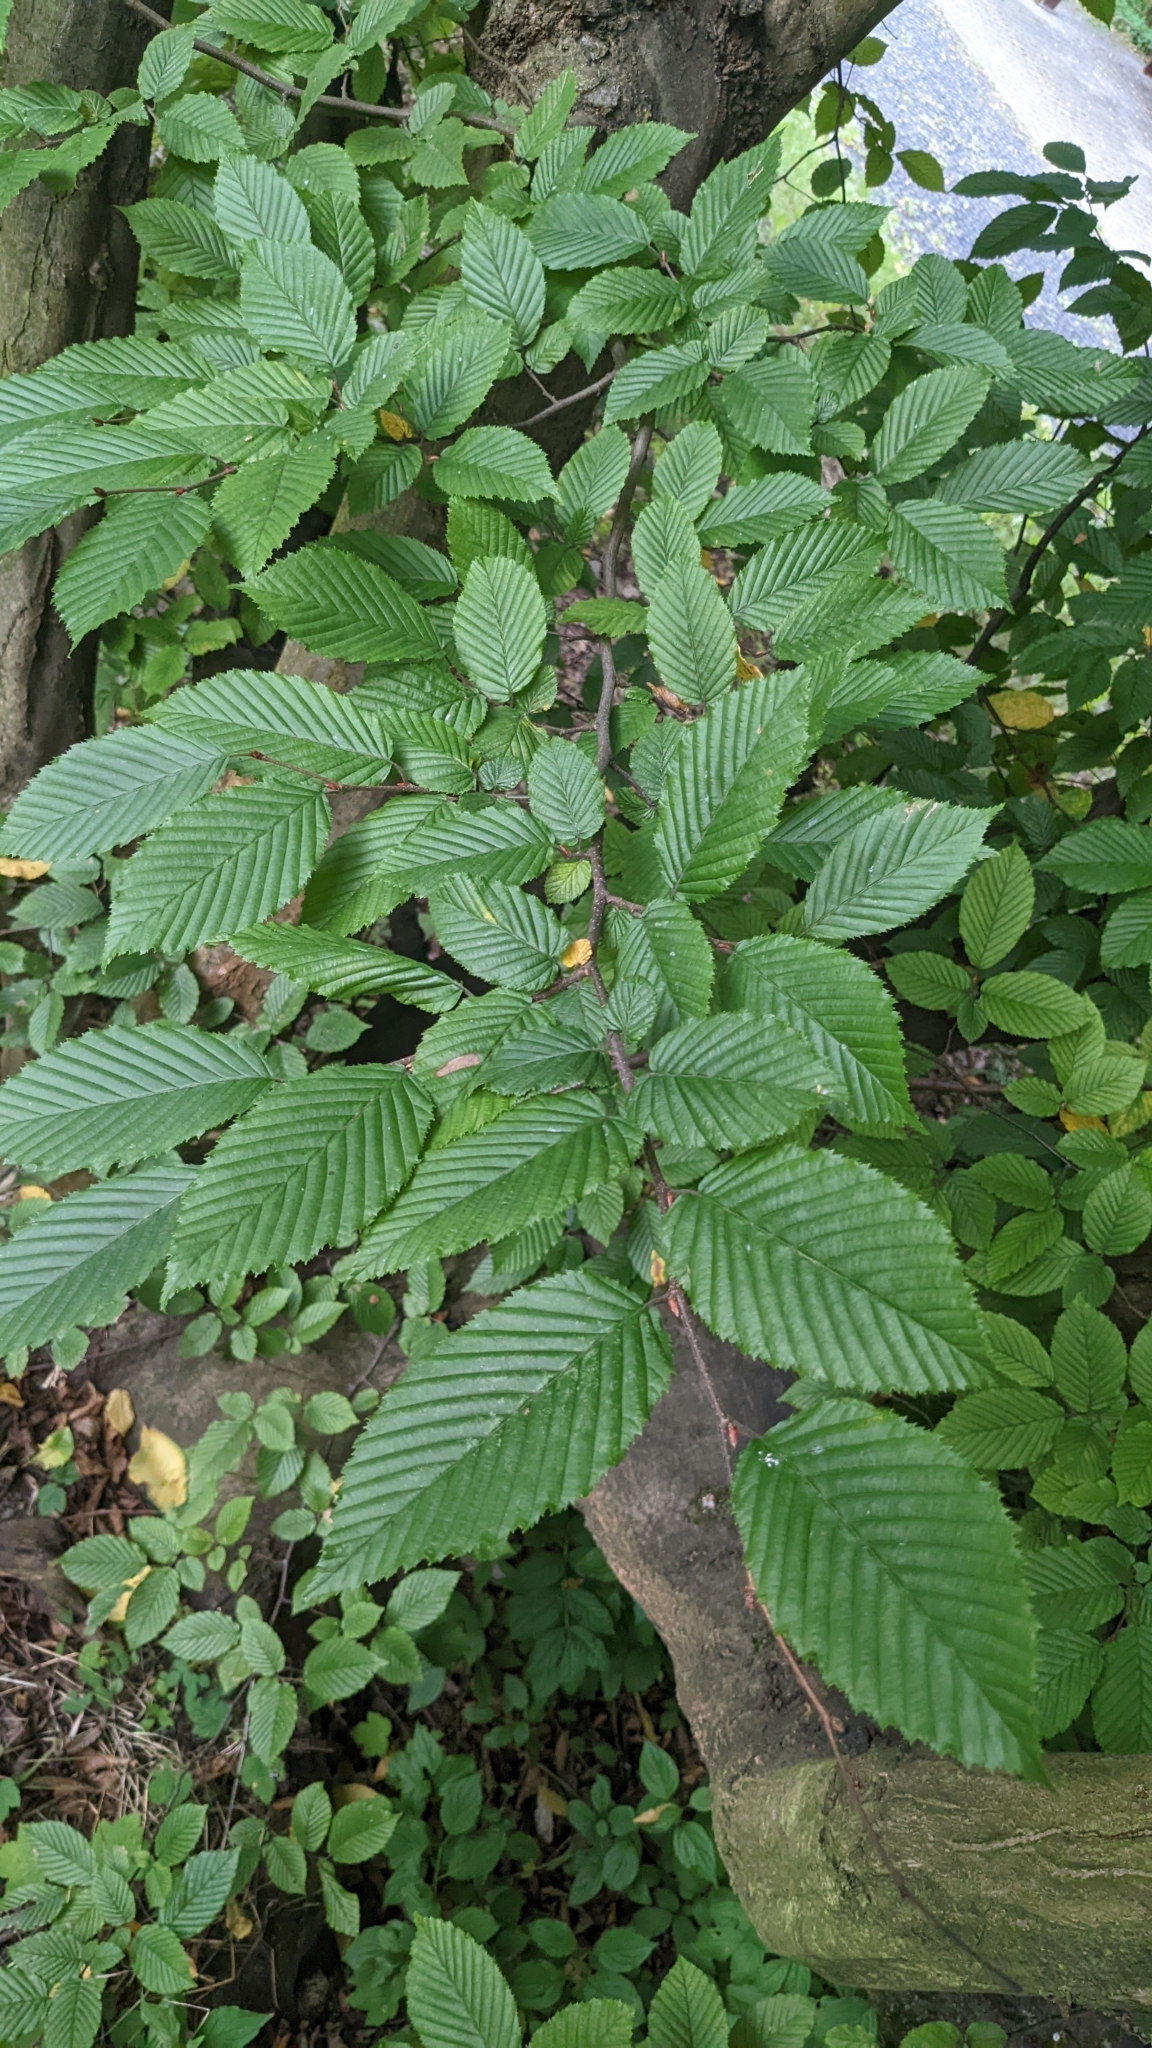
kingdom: Plantae
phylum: Tracheophyta
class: Magnoliopsida
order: Fagales
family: Betulaceae
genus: Carpinus
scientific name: Carpinus betulus
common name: Hornbeam
